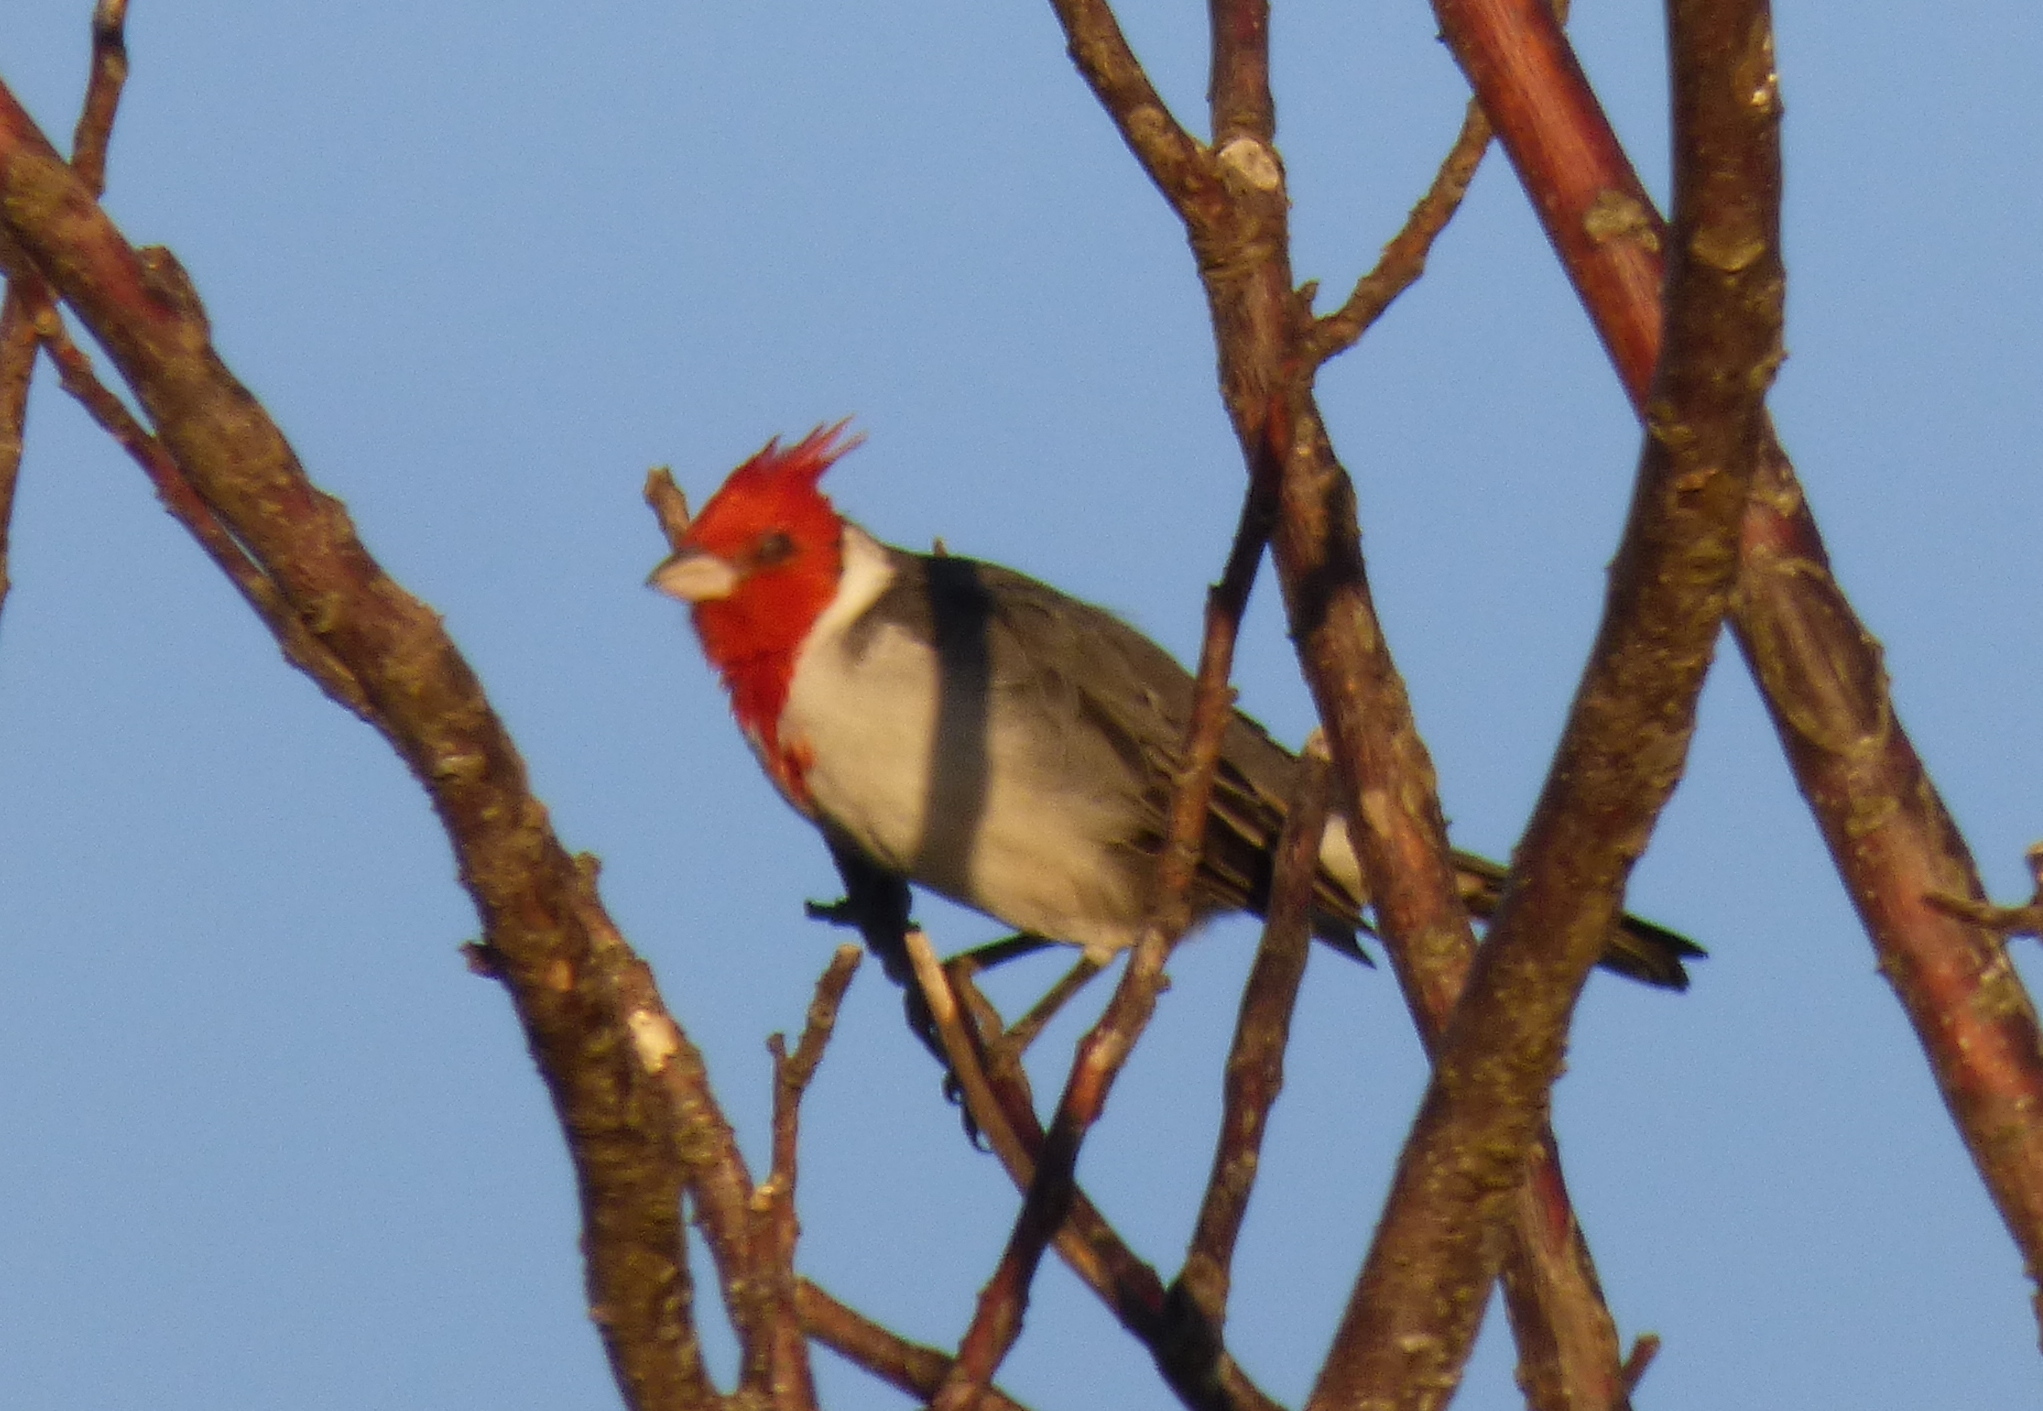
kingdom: Animalia
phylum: Chordata
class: Aves
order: Passeriformes
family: Thraupidae
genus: Paroaria
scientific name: Paroaria coronata
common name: Red-crested cardinal
